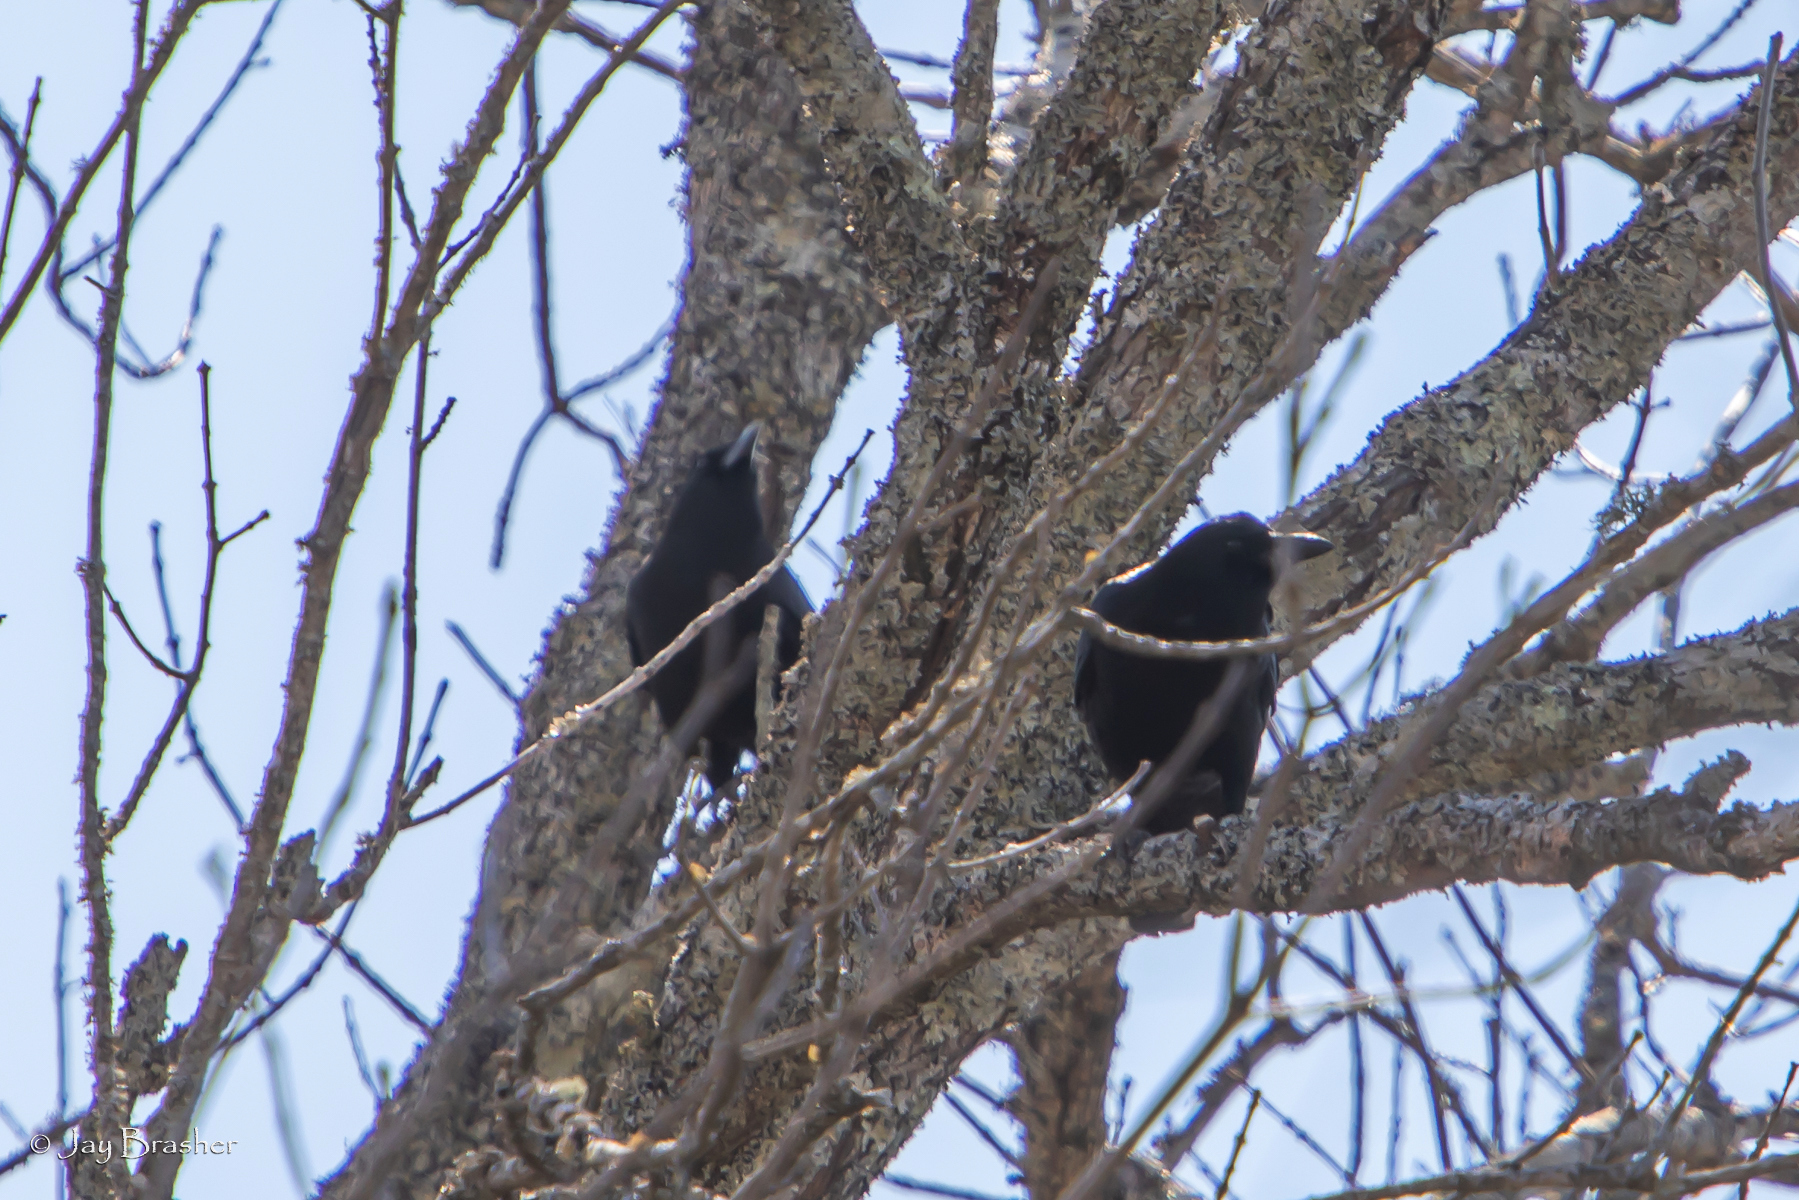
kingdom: Animalia
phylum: Chordata
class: Aves
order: Passeriformes
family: Corvidae
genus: Corvus
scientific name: Corvus brachyrhynchos
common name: American crow
